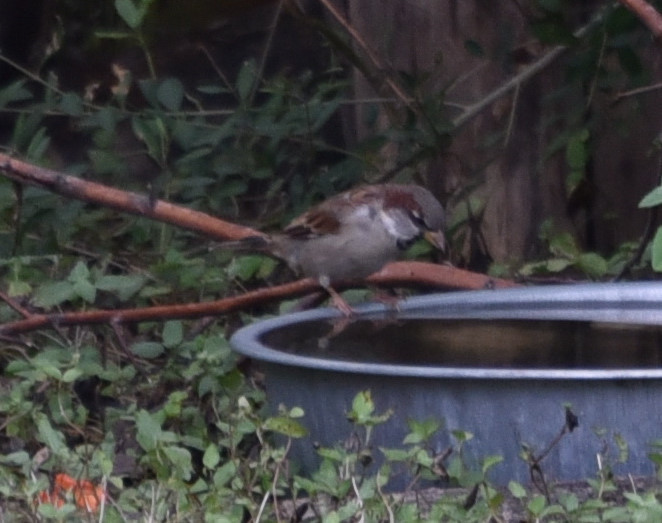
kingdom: Animalia
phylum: Chordata
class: Aves
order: Passeriformes
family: Passeridae
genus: Passer
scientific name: Passer domesticus
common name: House sparrow
